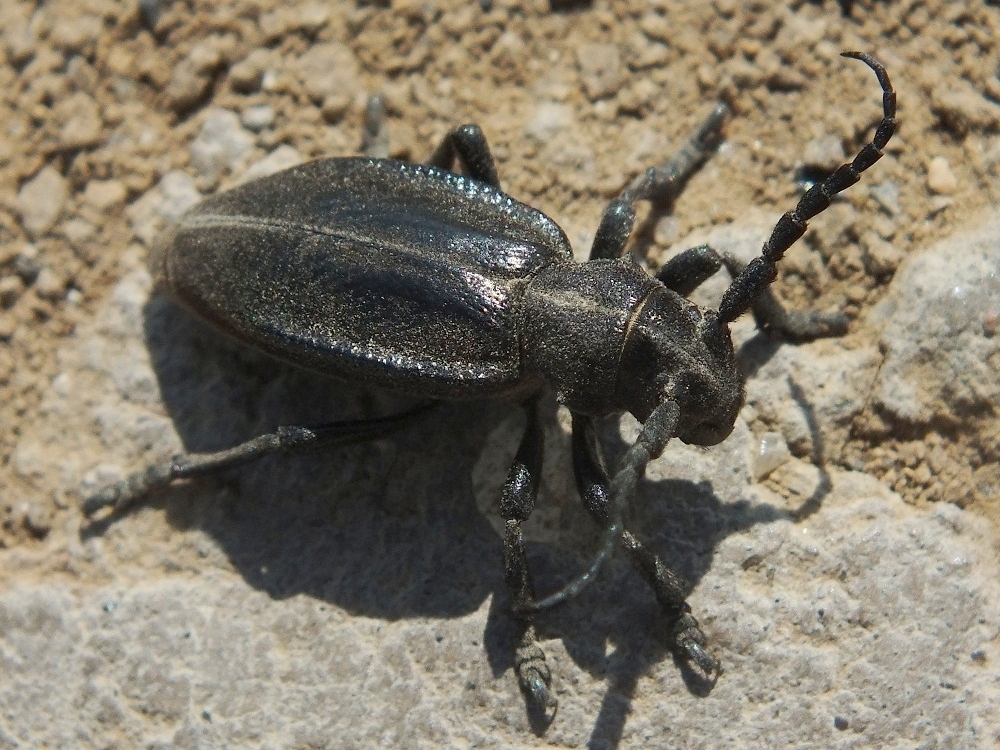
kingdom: Animalia
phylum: Arthropoda
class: Insecta
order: Coleoptera
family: Cerambycidae
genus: Dorcadion
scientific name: Dorcadion carinatum
